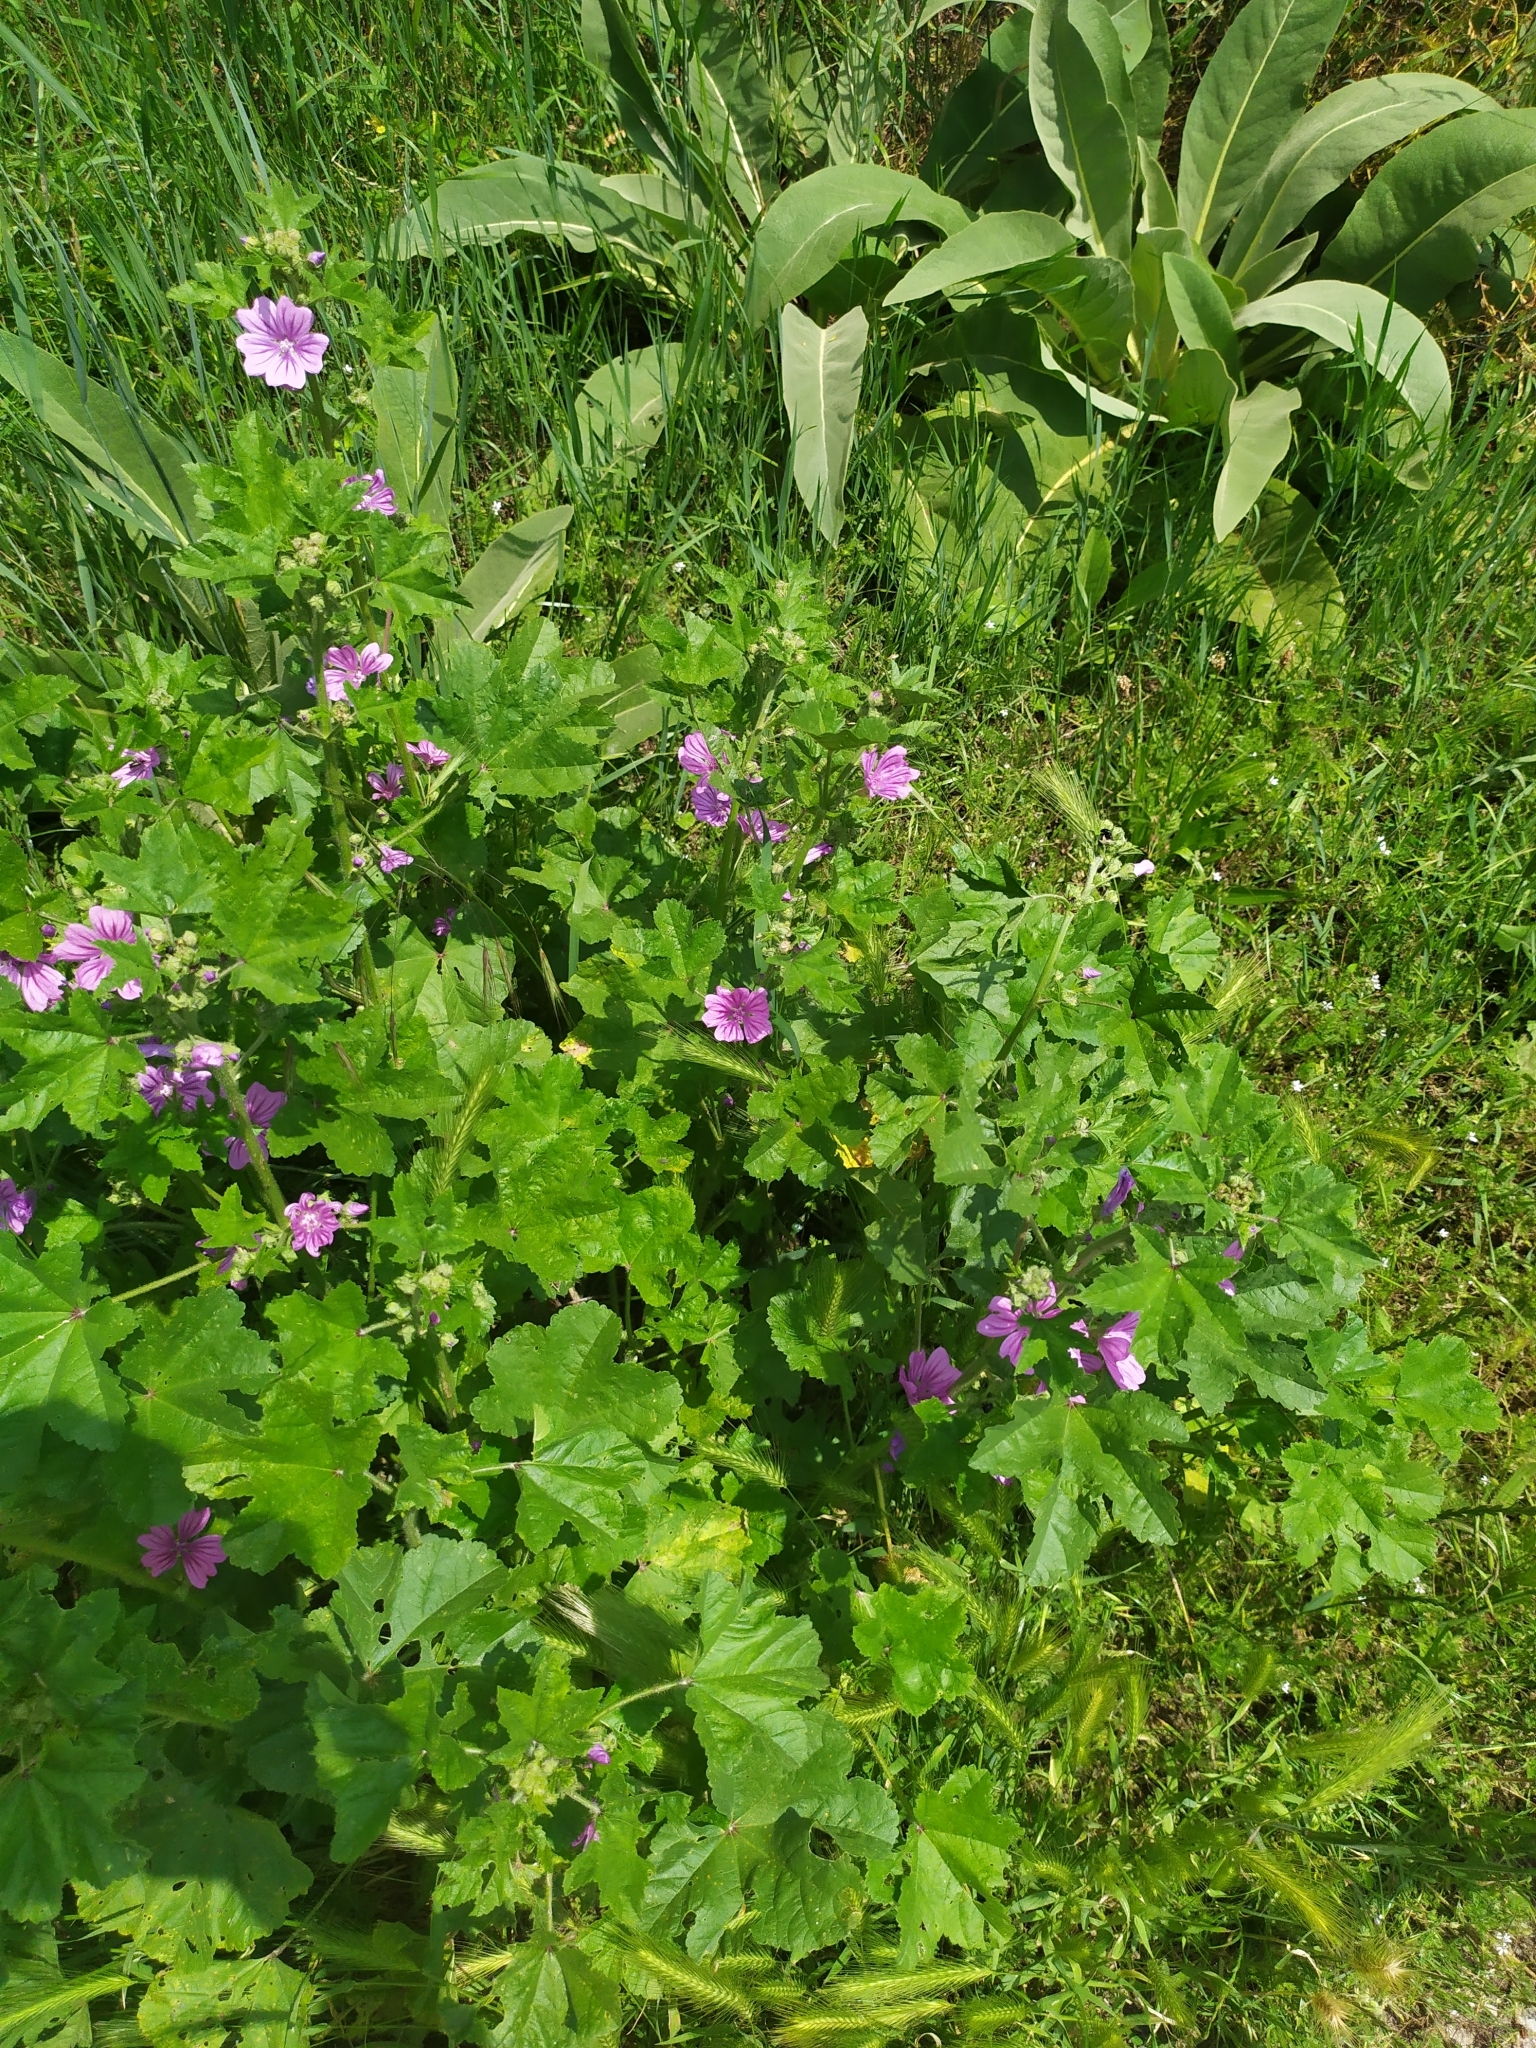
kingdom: Plantae
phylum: Tracheophyta
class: Magnoliopsida
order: Malvales
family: Malvaceae
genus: Malva
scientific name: Malva sylvestris
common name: Common mallow
